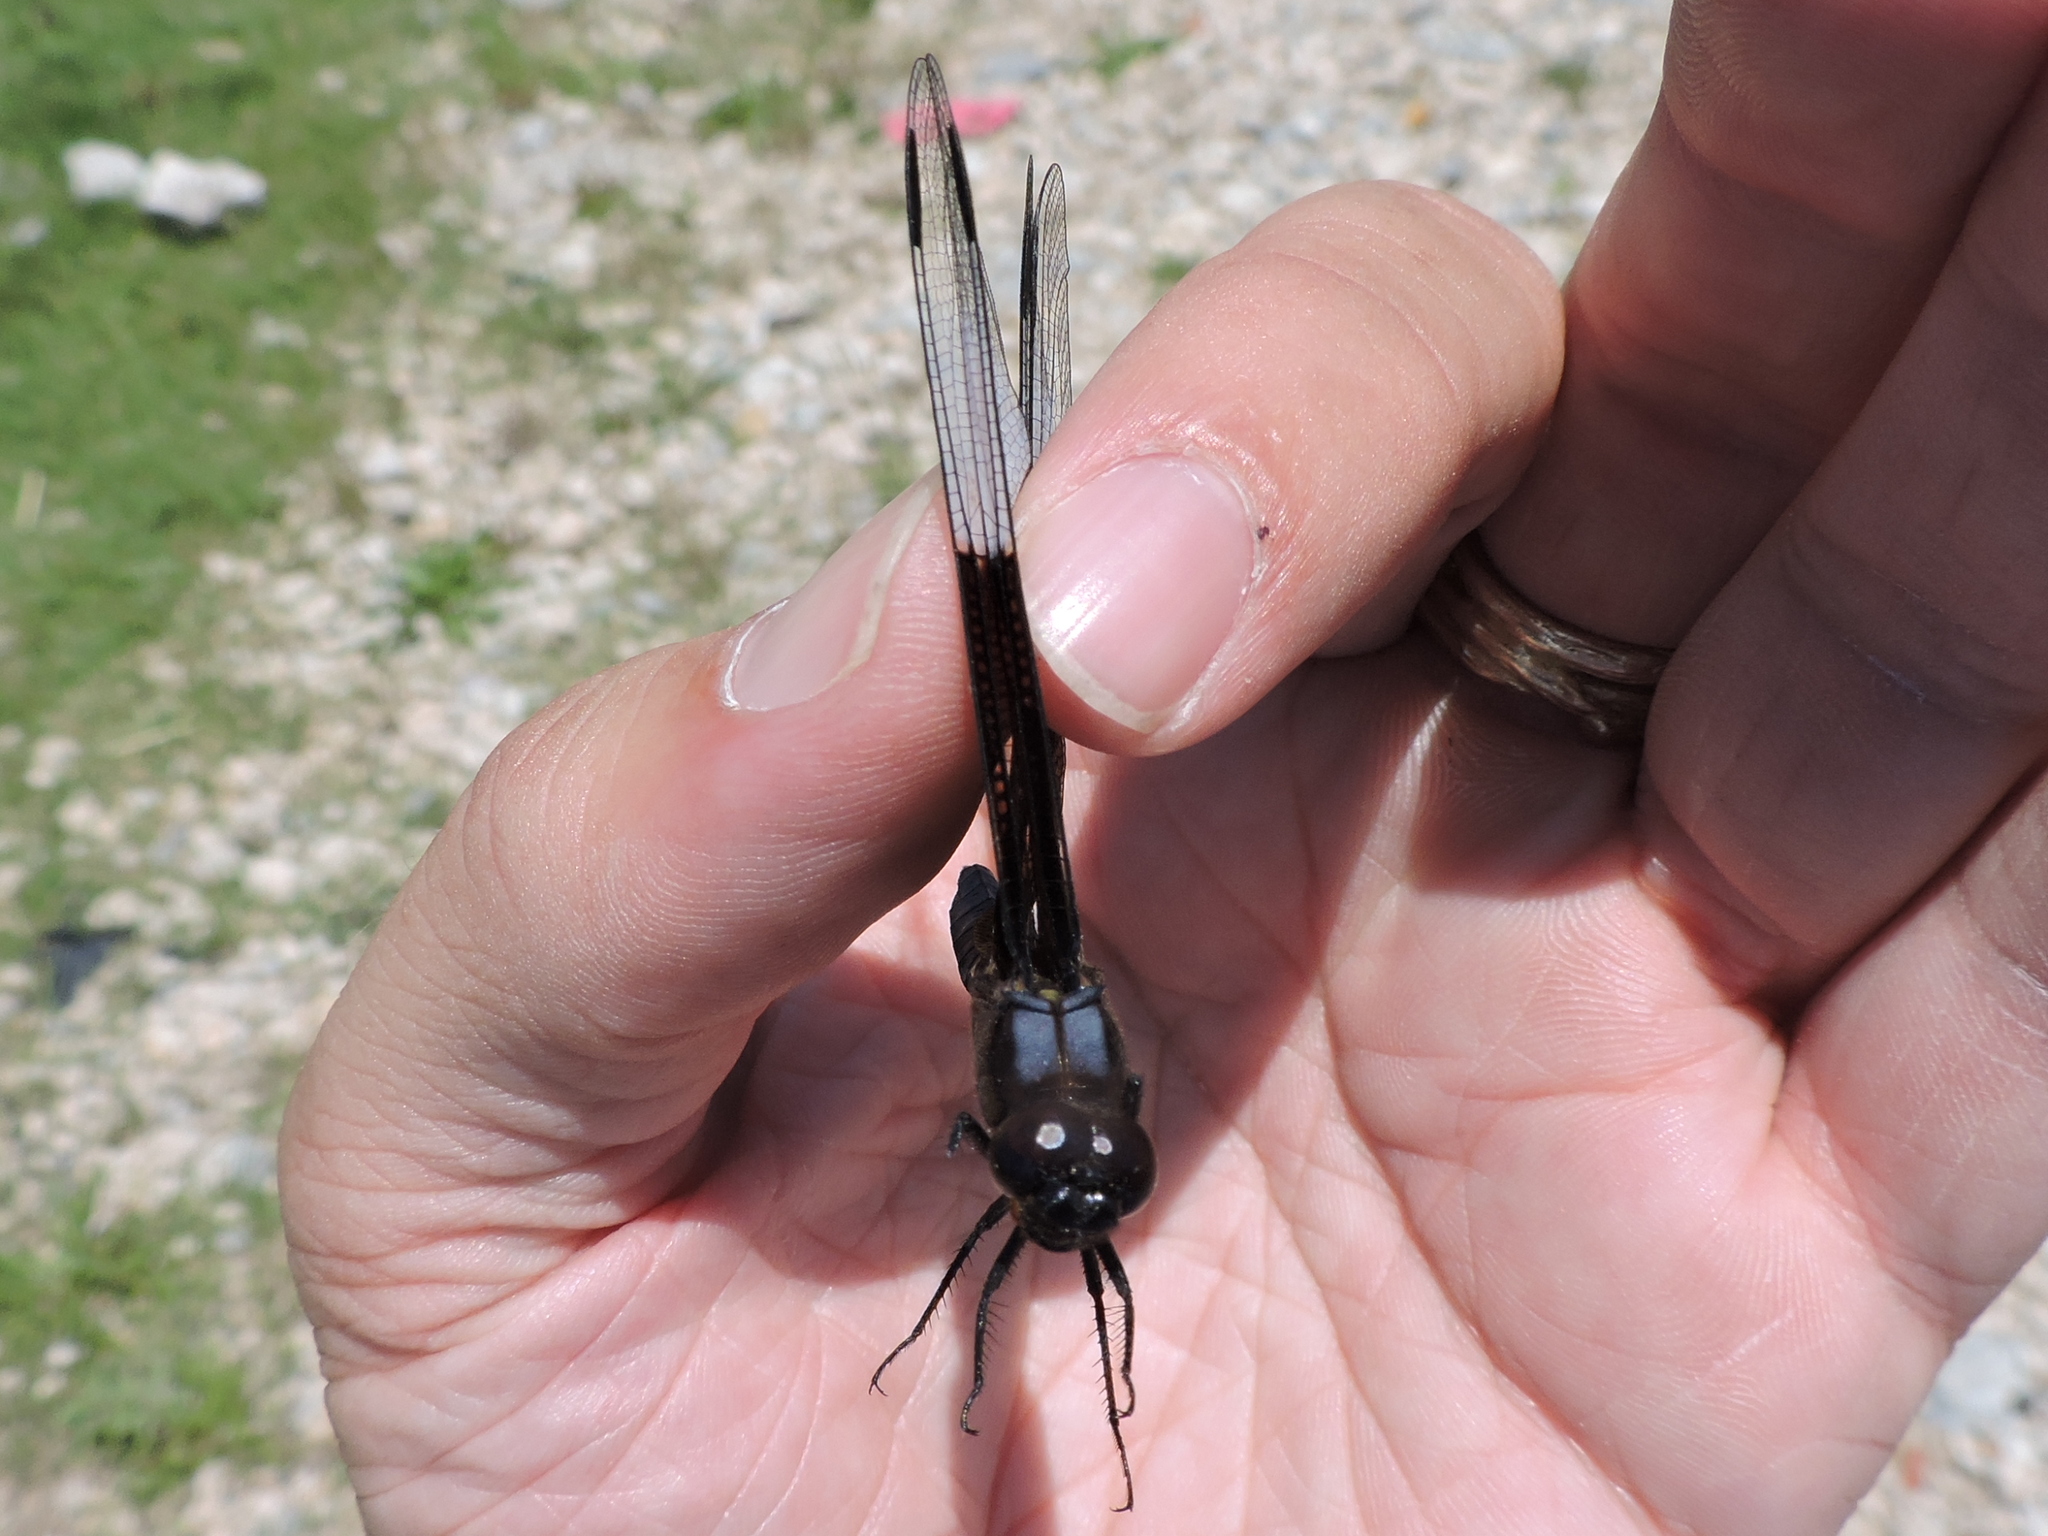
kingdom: Animalia
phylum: Arthropoda
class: Insecta
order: Odonata
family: Libellulidae
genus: Libellula
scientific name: Libellula luctuosa
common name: Widow skimmer
